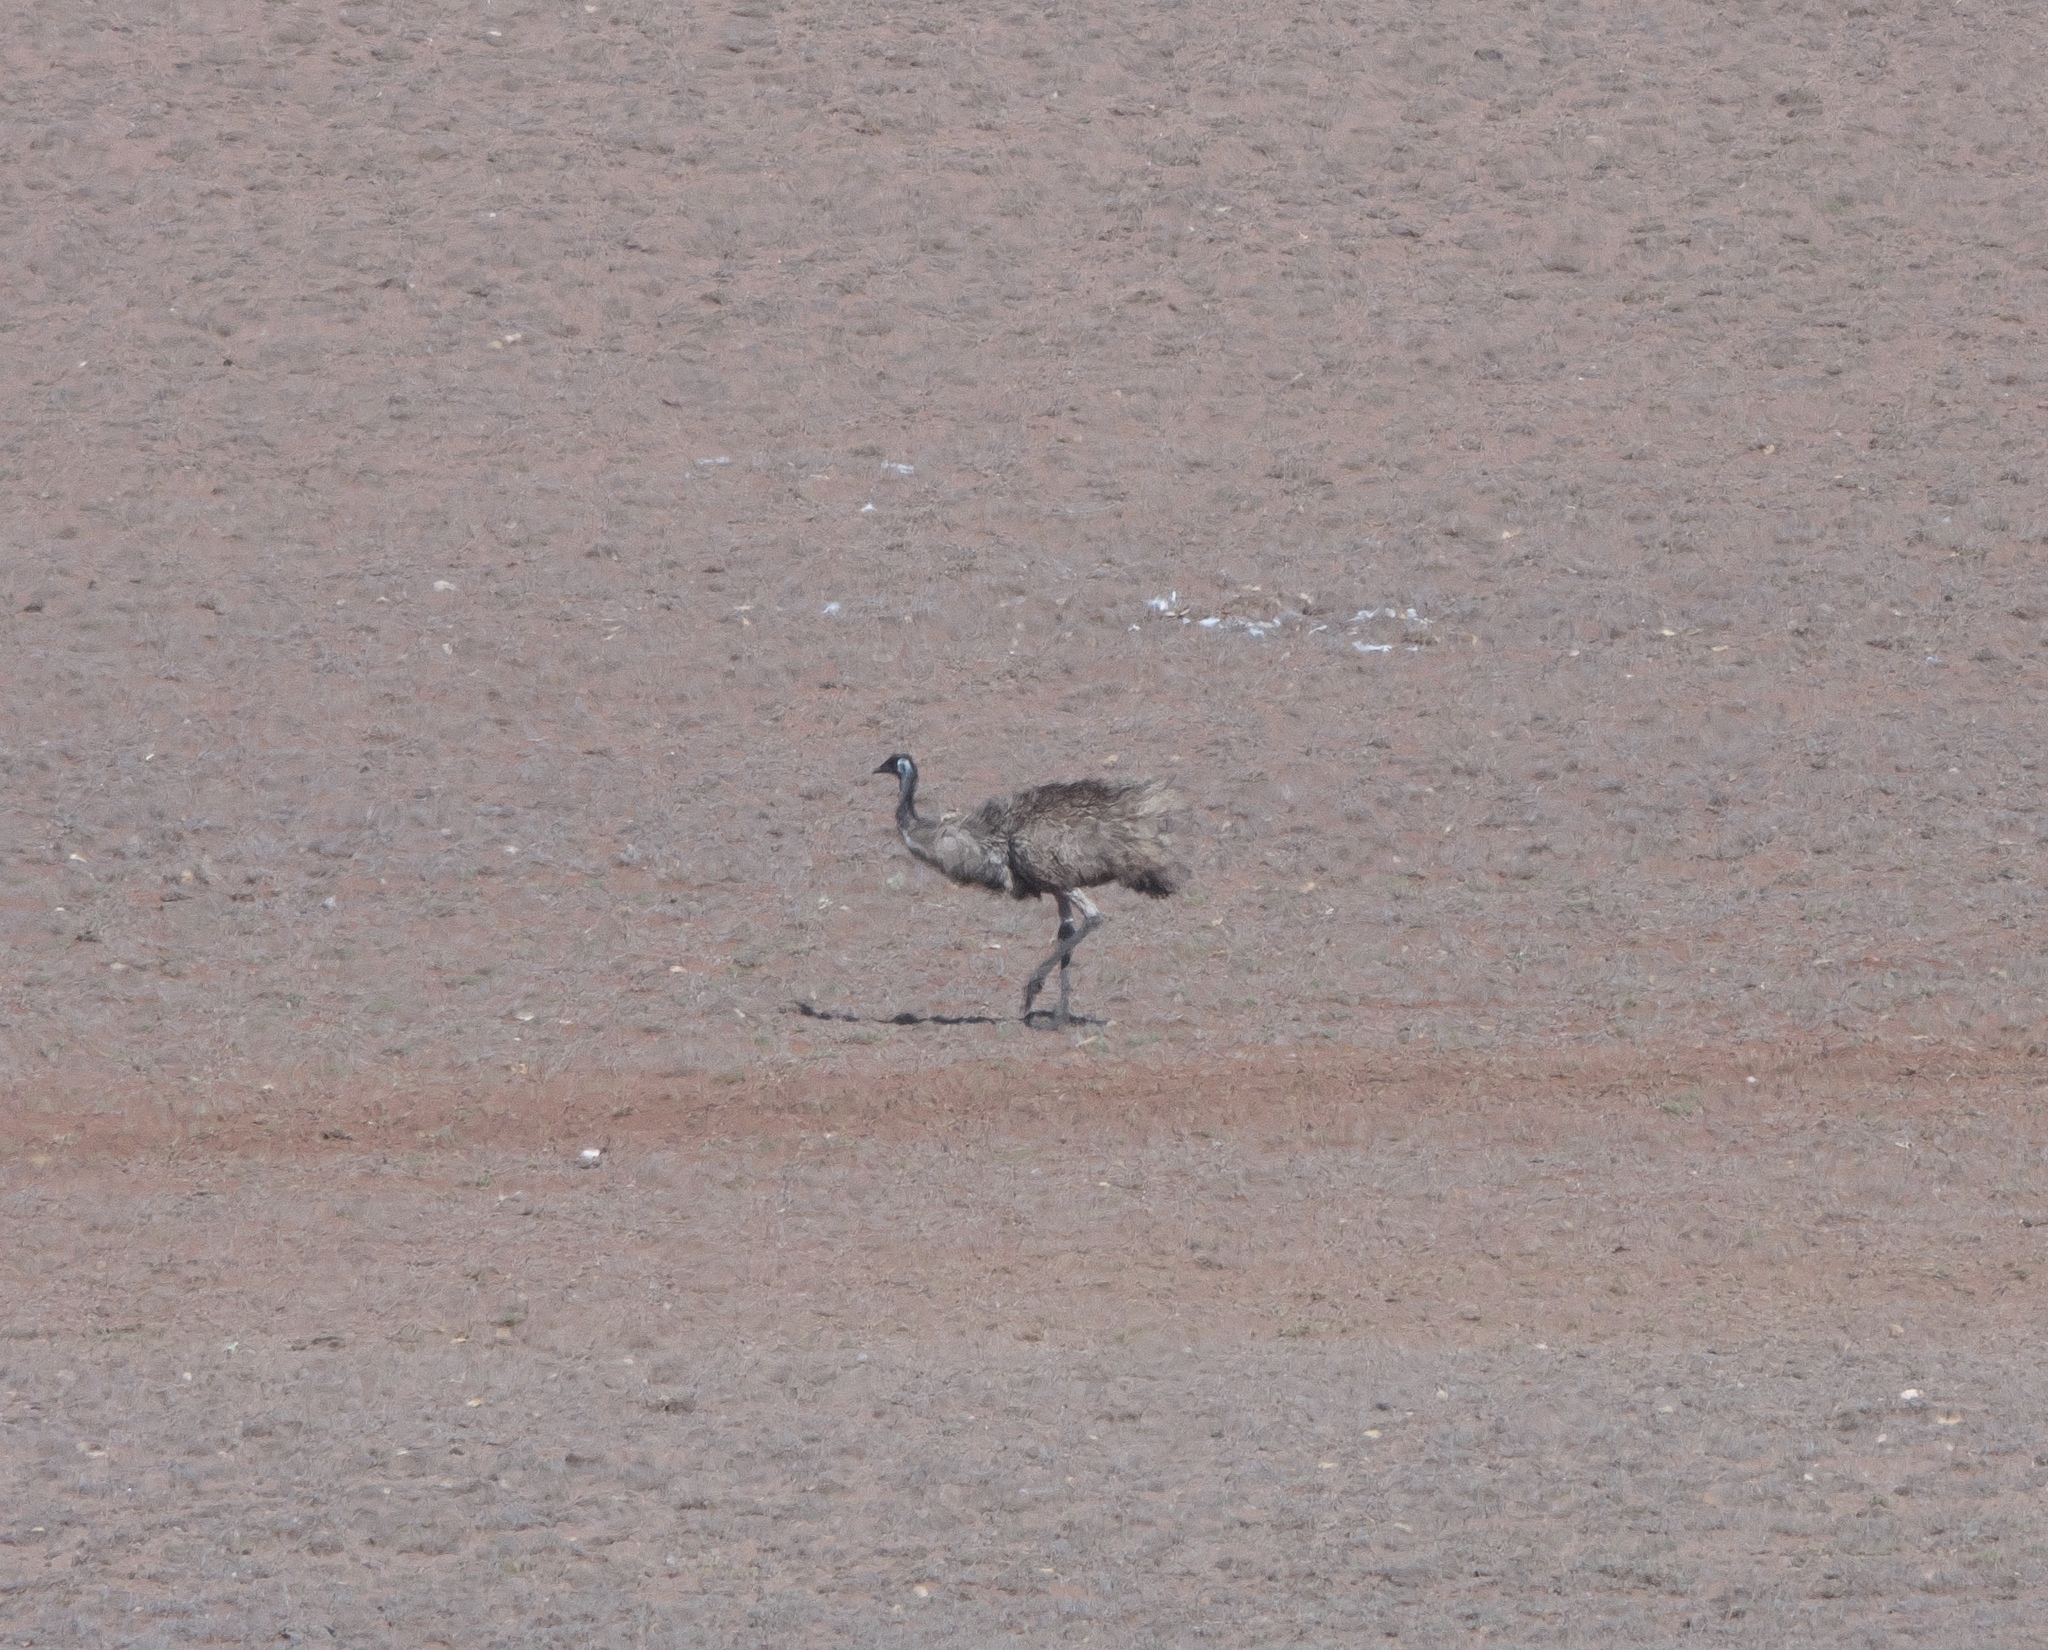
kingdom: Animalia
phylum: Chordata
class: Aves
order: Casuariiformes
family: Dromaiidae
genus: Dromaius
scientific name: Dromaius novaehollandiae
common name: Emu
